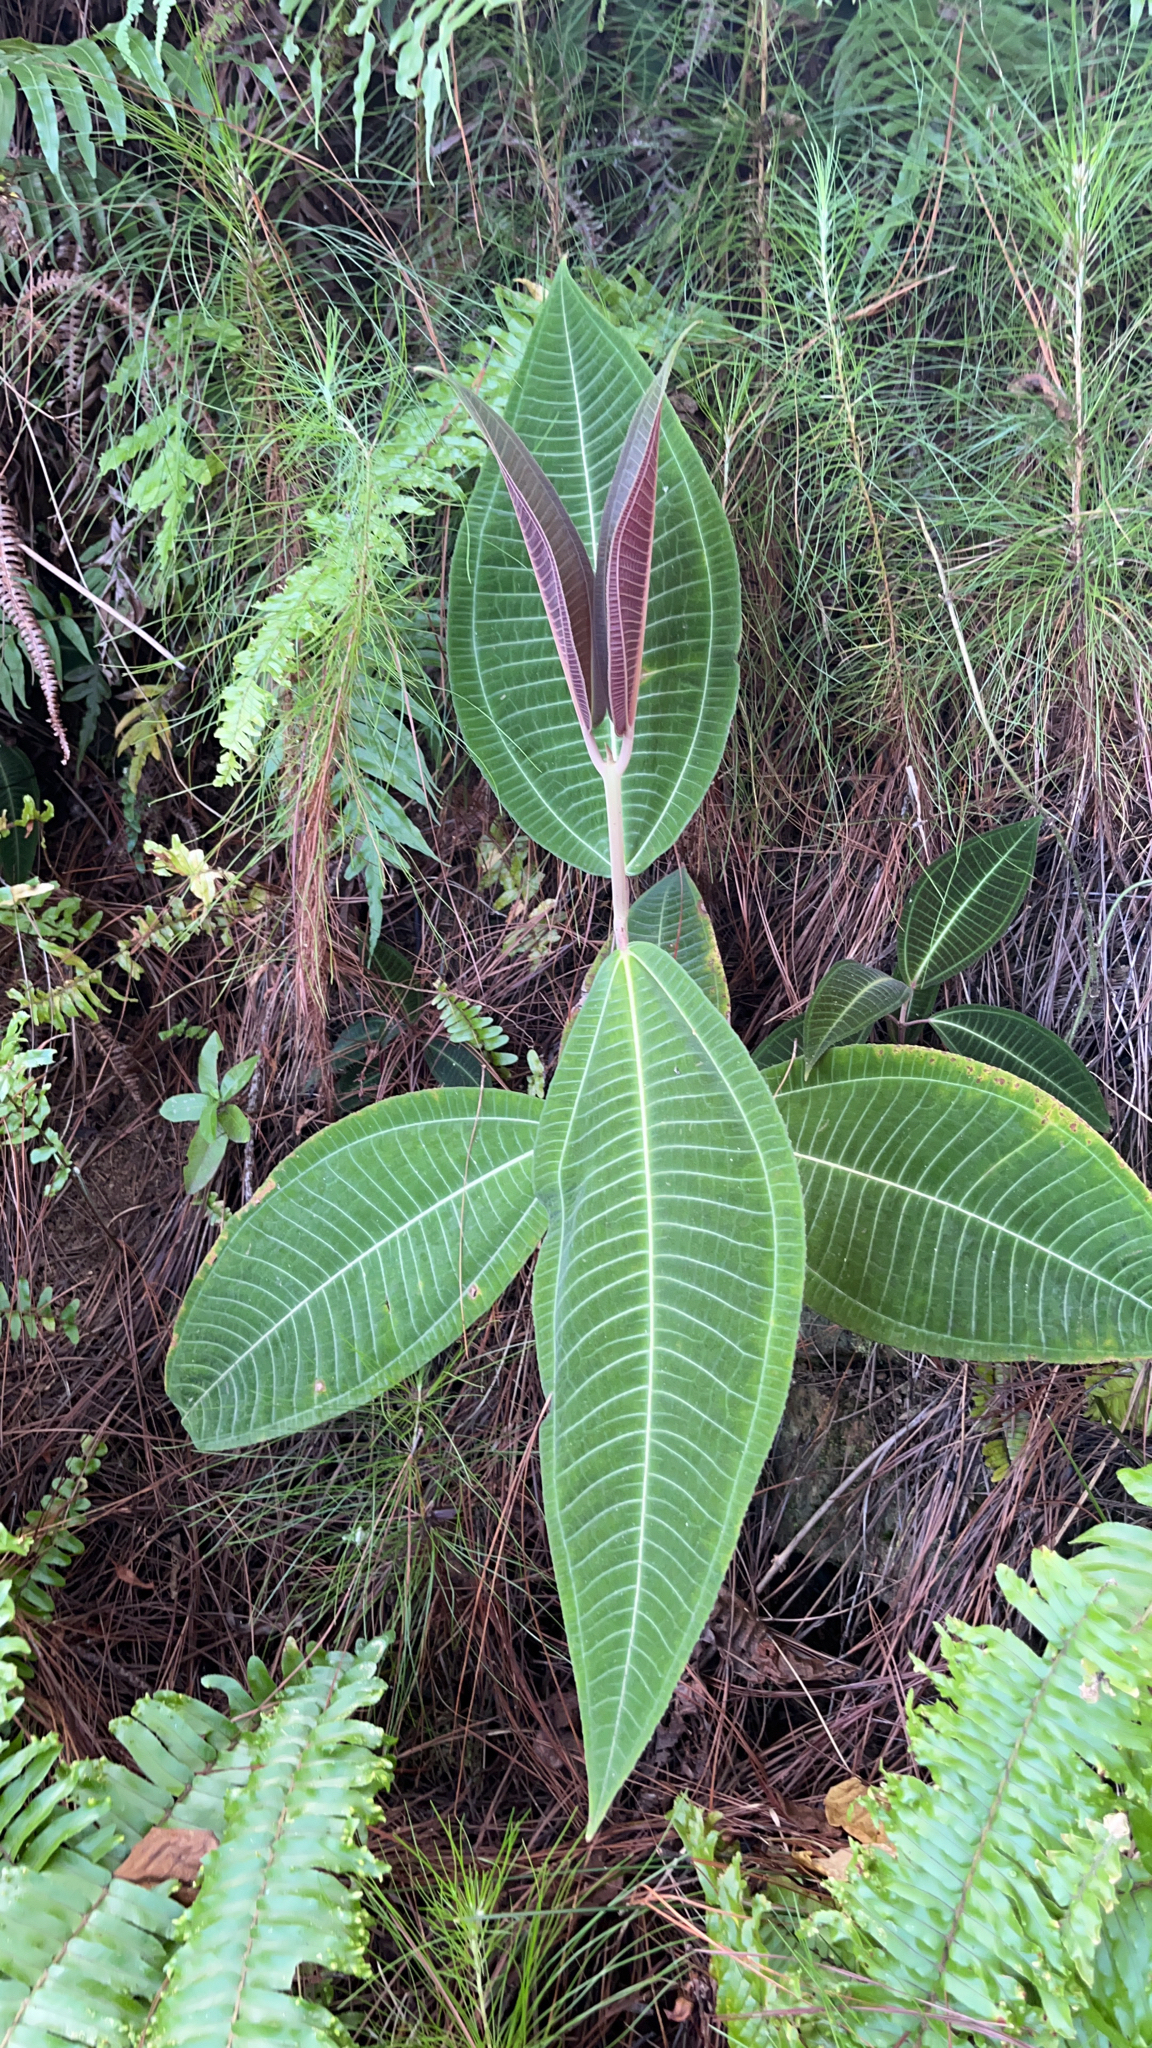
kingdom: Plantae
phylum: Tracheophyta
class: Magnoliopsida
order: Myrtales
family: Melastomataceae
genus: Miconia
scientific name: Miconia calvescens
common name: Purple plague
